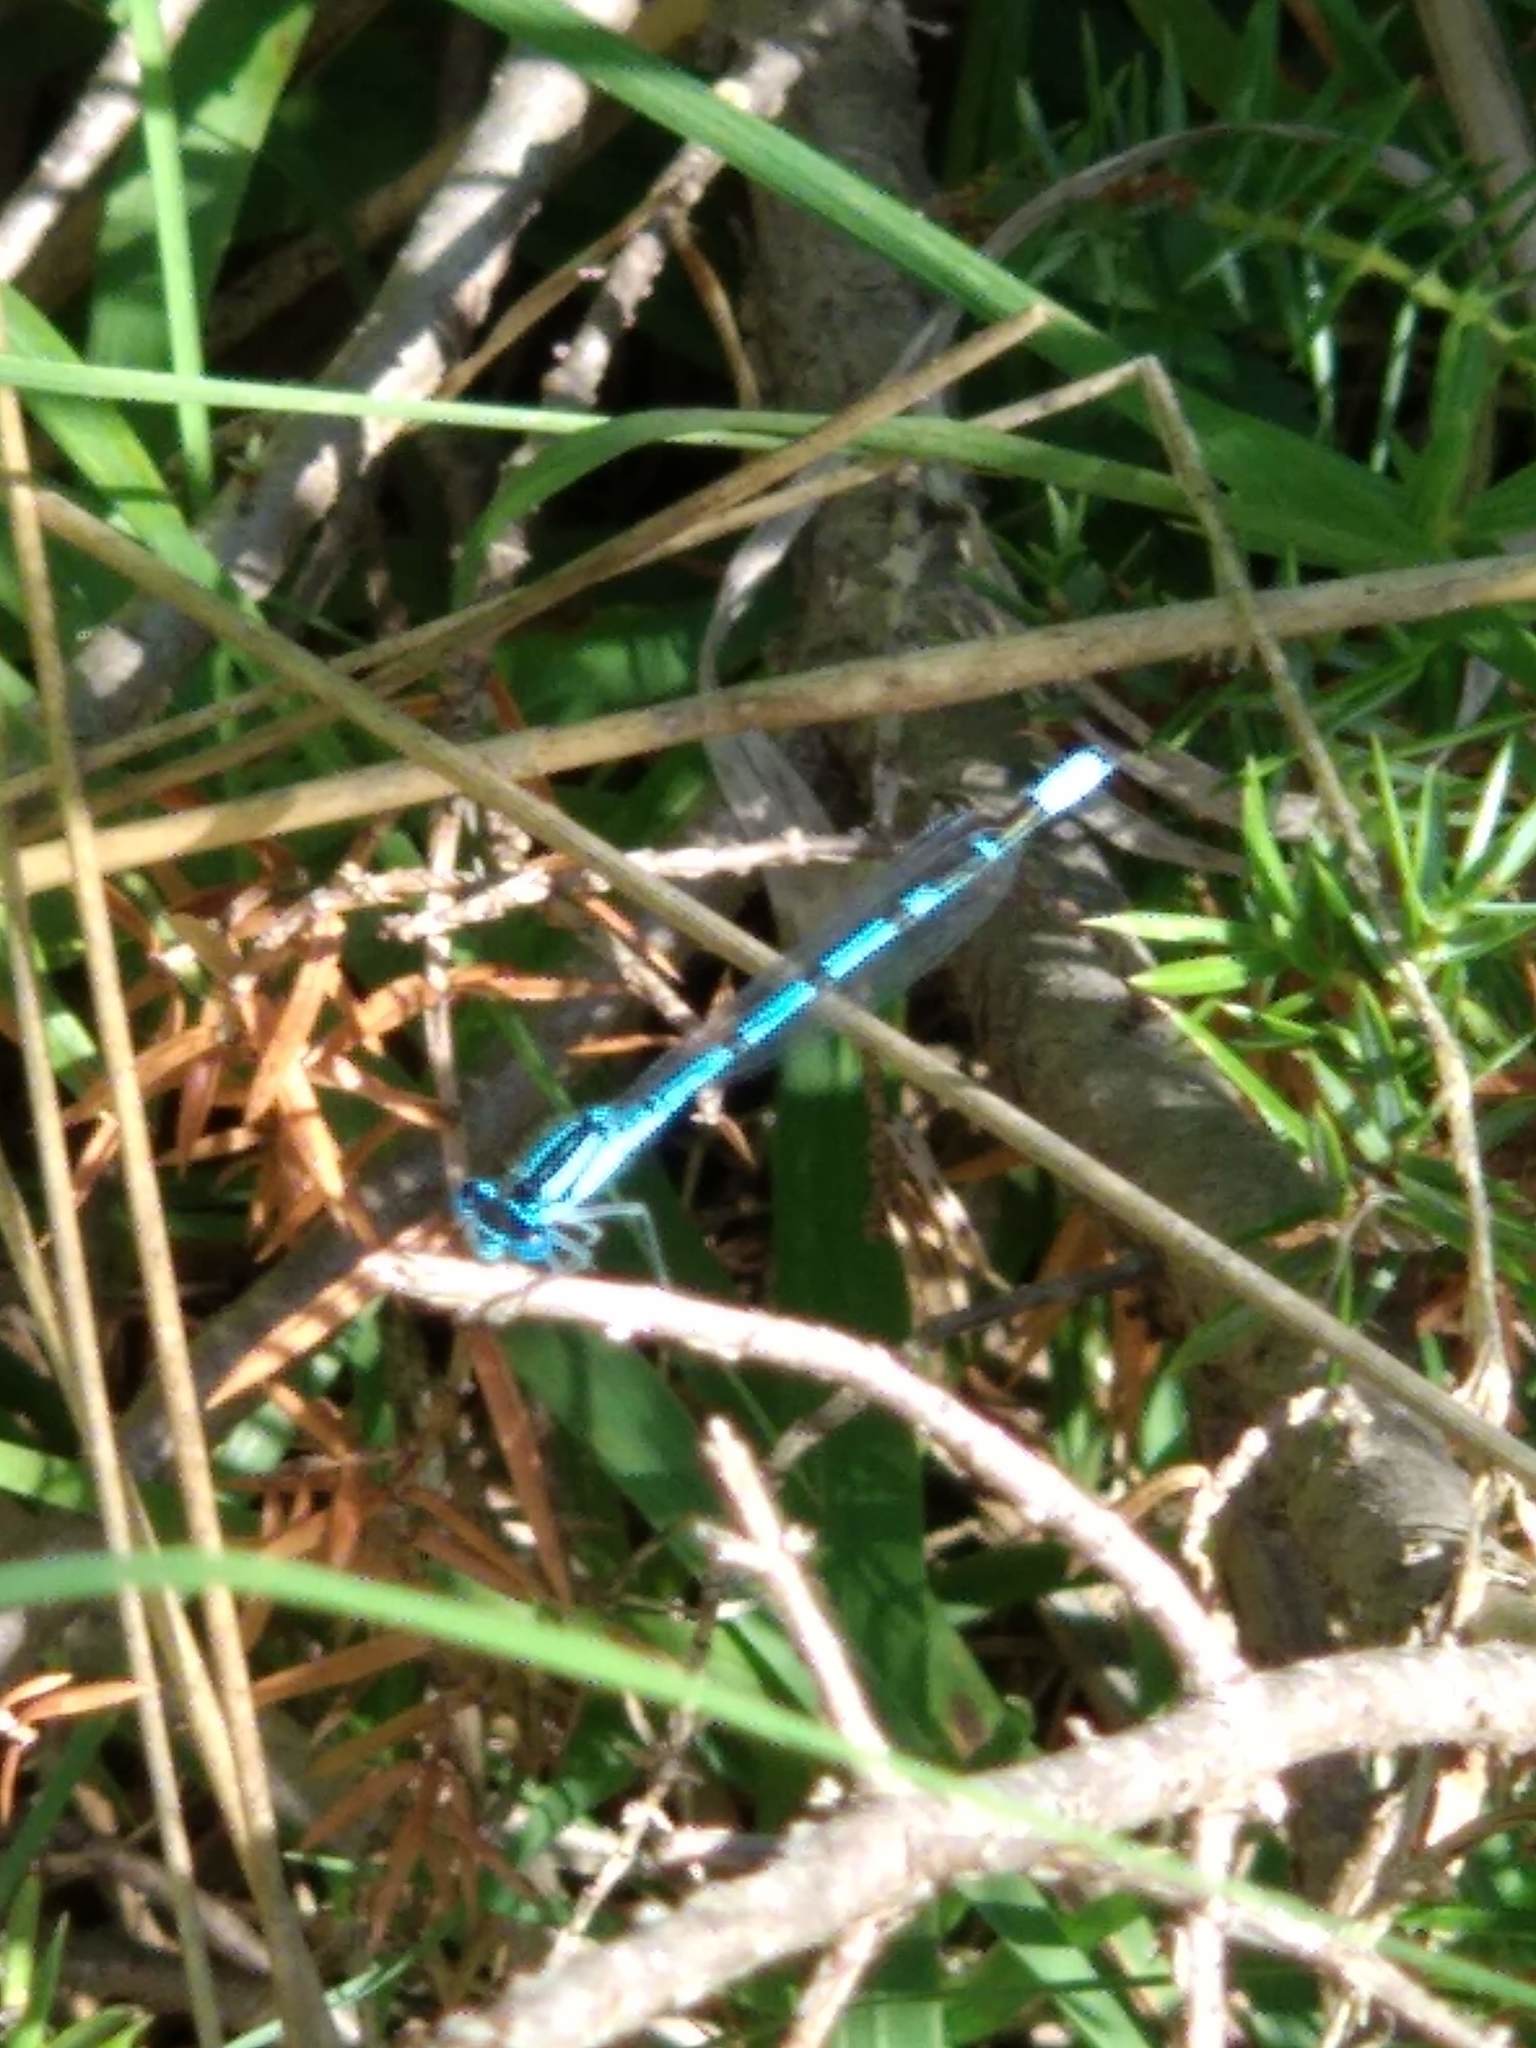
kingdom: Animalia
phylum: Arthropoda
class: Insecta
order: Odonata
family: Coenagrionidae
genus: Enallagma
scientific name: Enallagma cyathigerum
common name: Common blue damselfly
